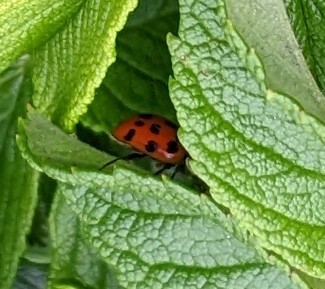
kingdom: Animalia
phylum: Arthropoda
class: Insecta
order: Coleoptera
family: Coccinellidae
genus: Harmonia
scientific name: Harmonia axyridis
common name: Harlequin ladybird
